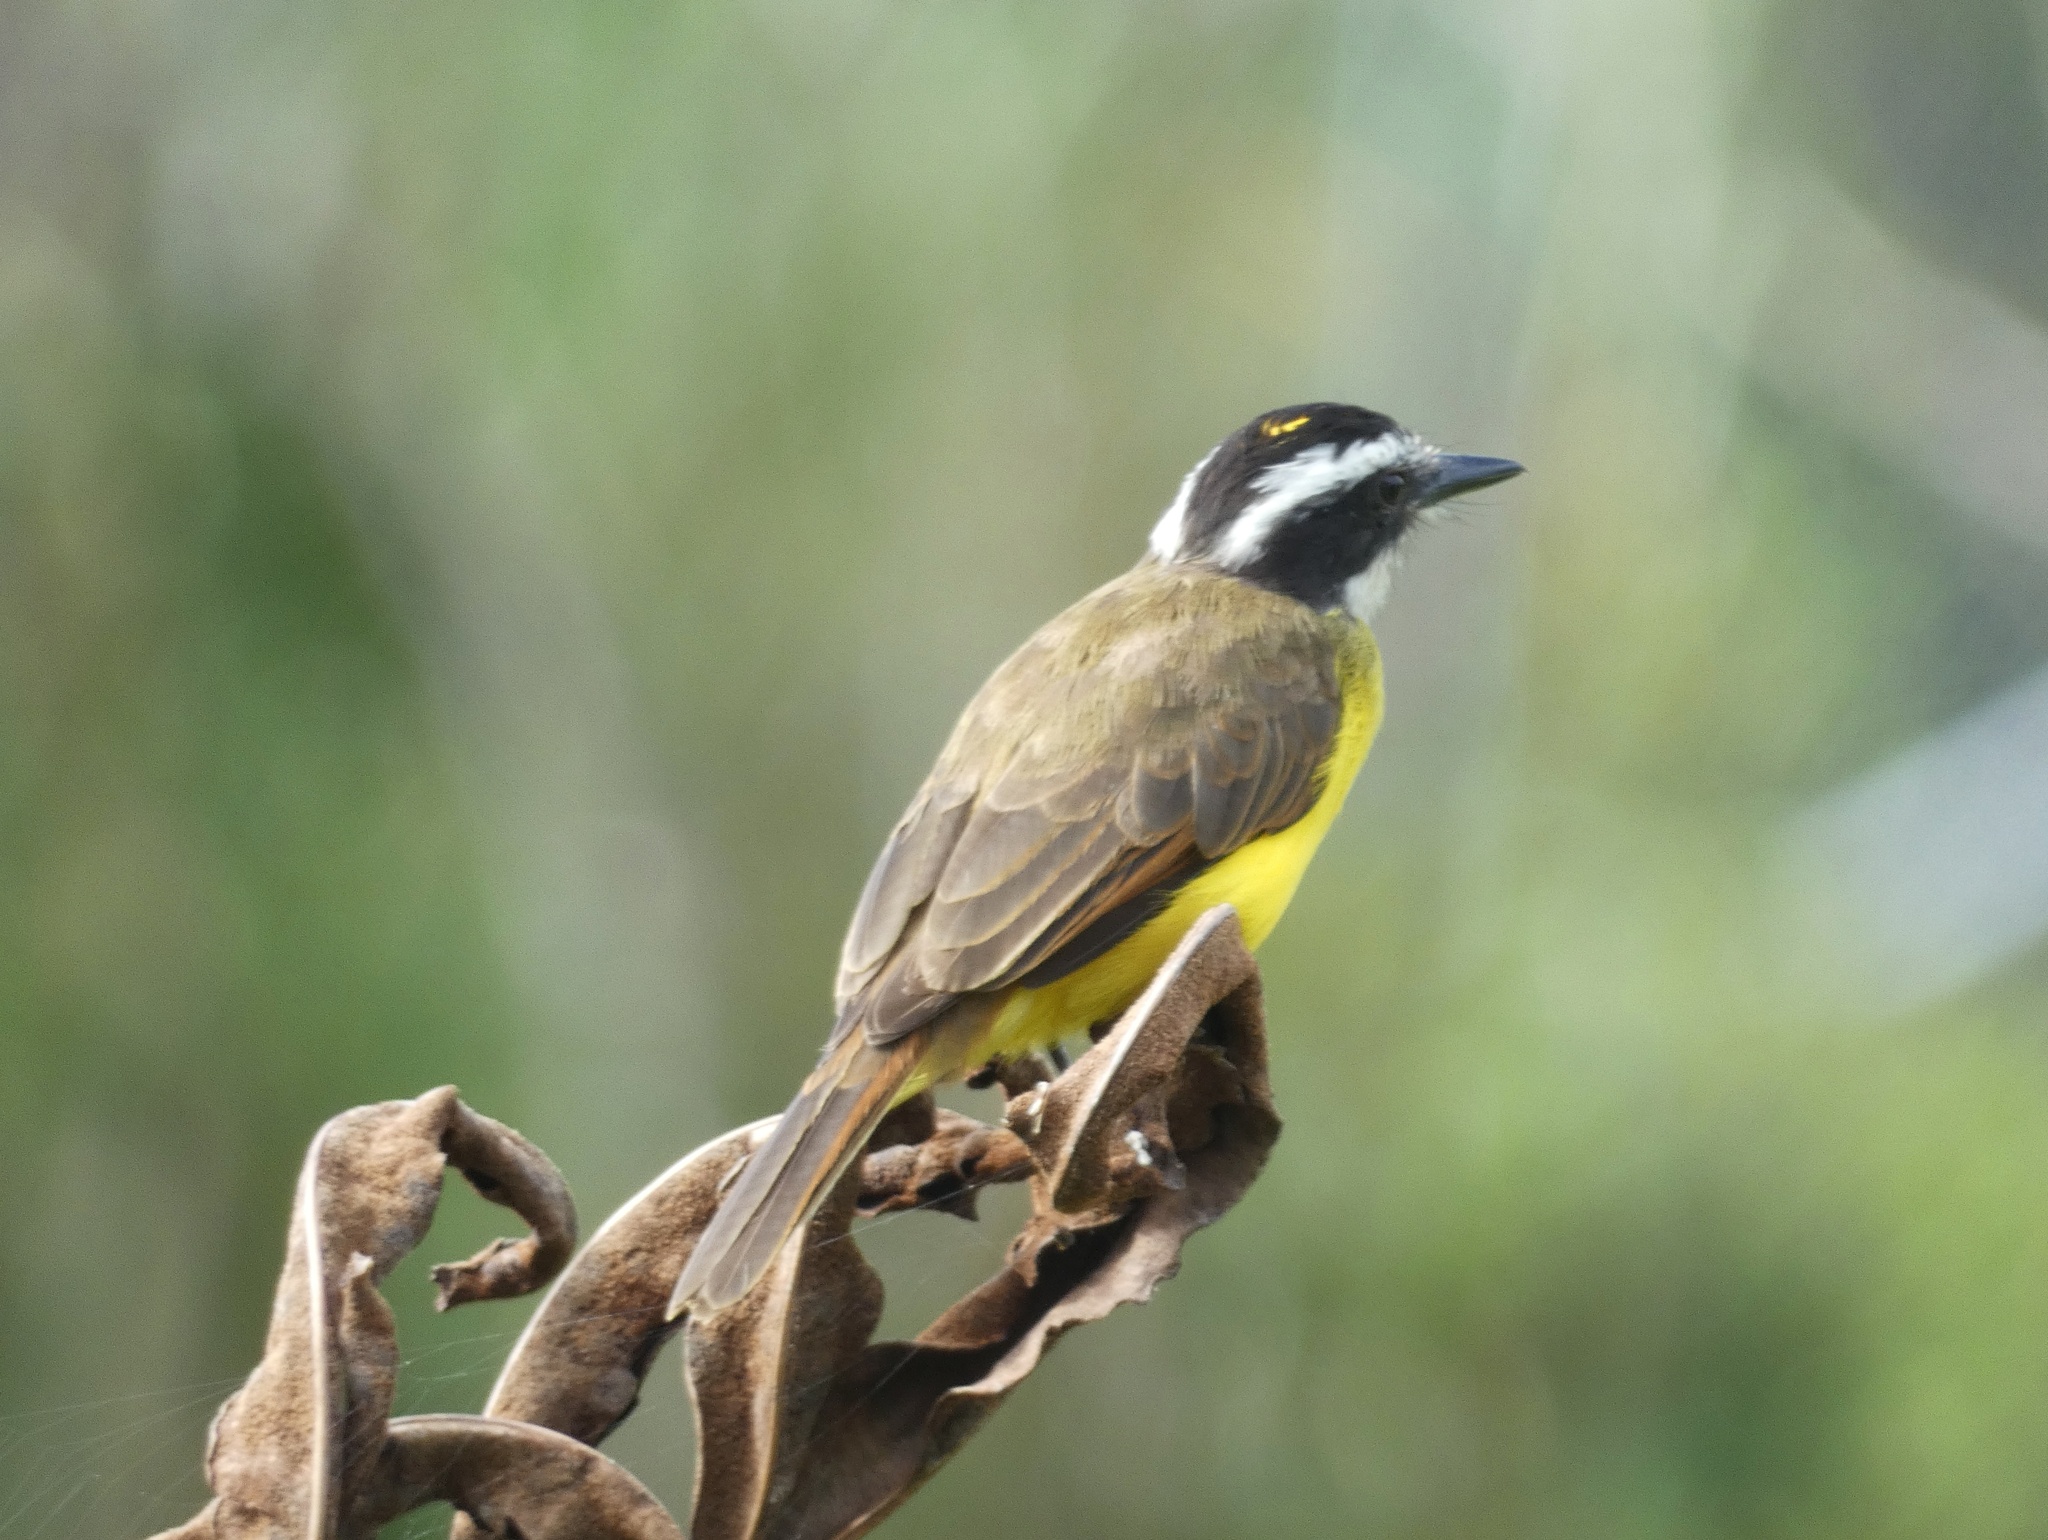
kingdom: Animalia
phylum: Chordata
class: Aves
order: Passeriformes
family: Tyrannidae
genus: Pitangus
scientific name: Pitangus lictor
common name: Lesser kiskadee
